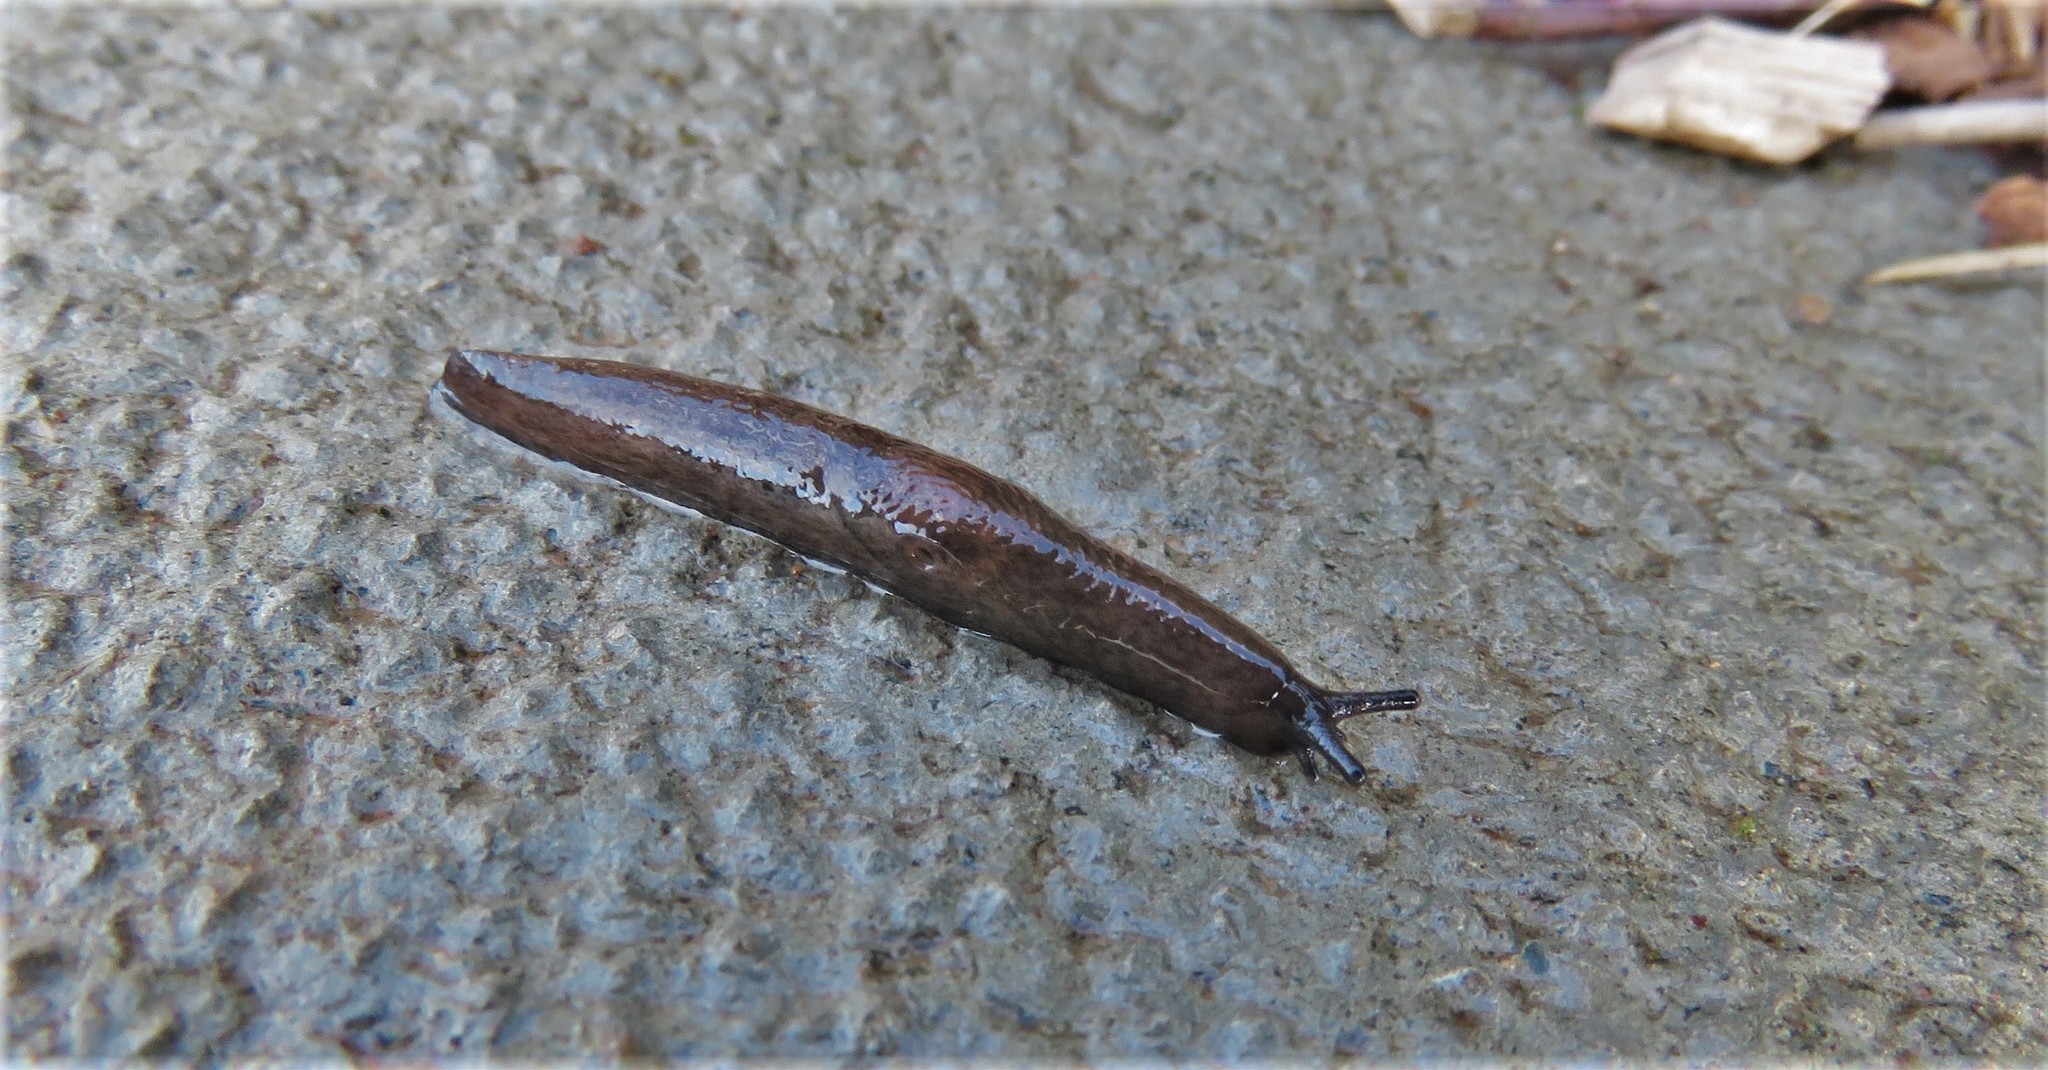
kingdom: Animalia
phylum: Mollusca
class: Gastropoda
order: Stylommatophora
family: Agriolimacidae
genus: Deroceras
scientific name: Deroceras laeve
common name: Marsh slug
